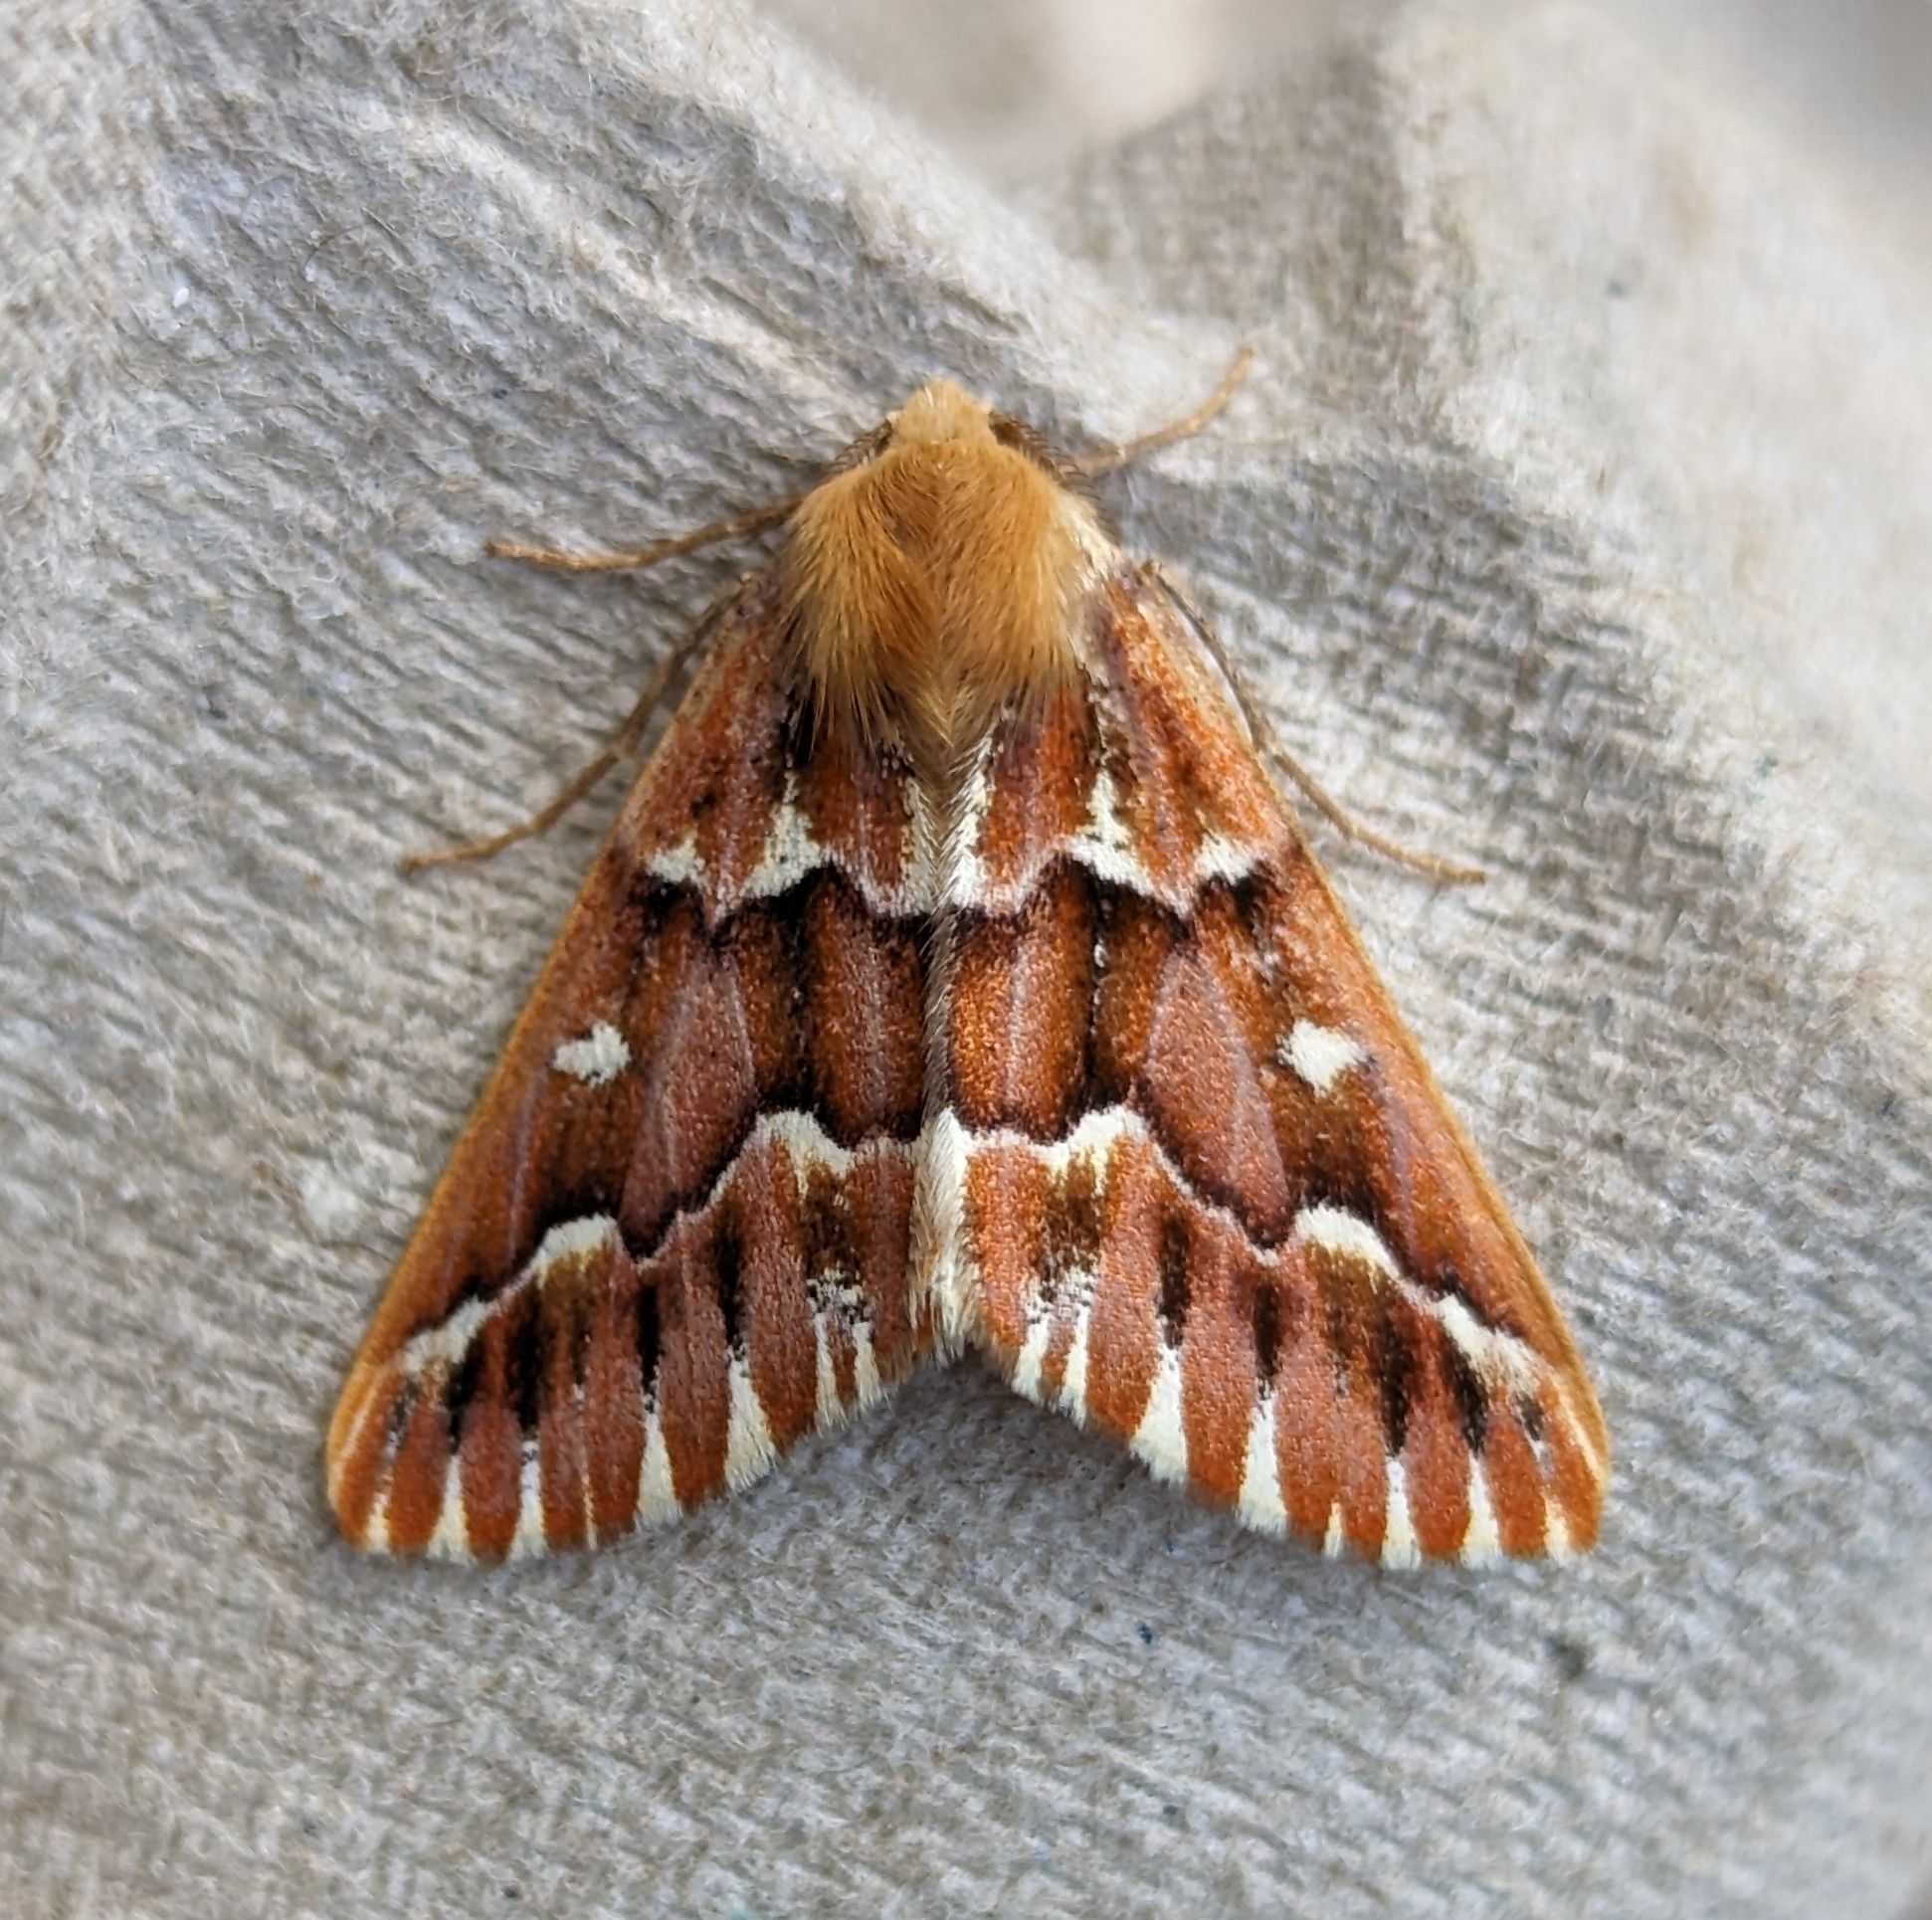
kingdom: Animalia
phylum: Arthropoda
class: Insecta
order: Lepidoptera
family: Geometridae
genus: Caripeta
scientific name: Caripeta aequaliaria
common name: Red girdle moth
